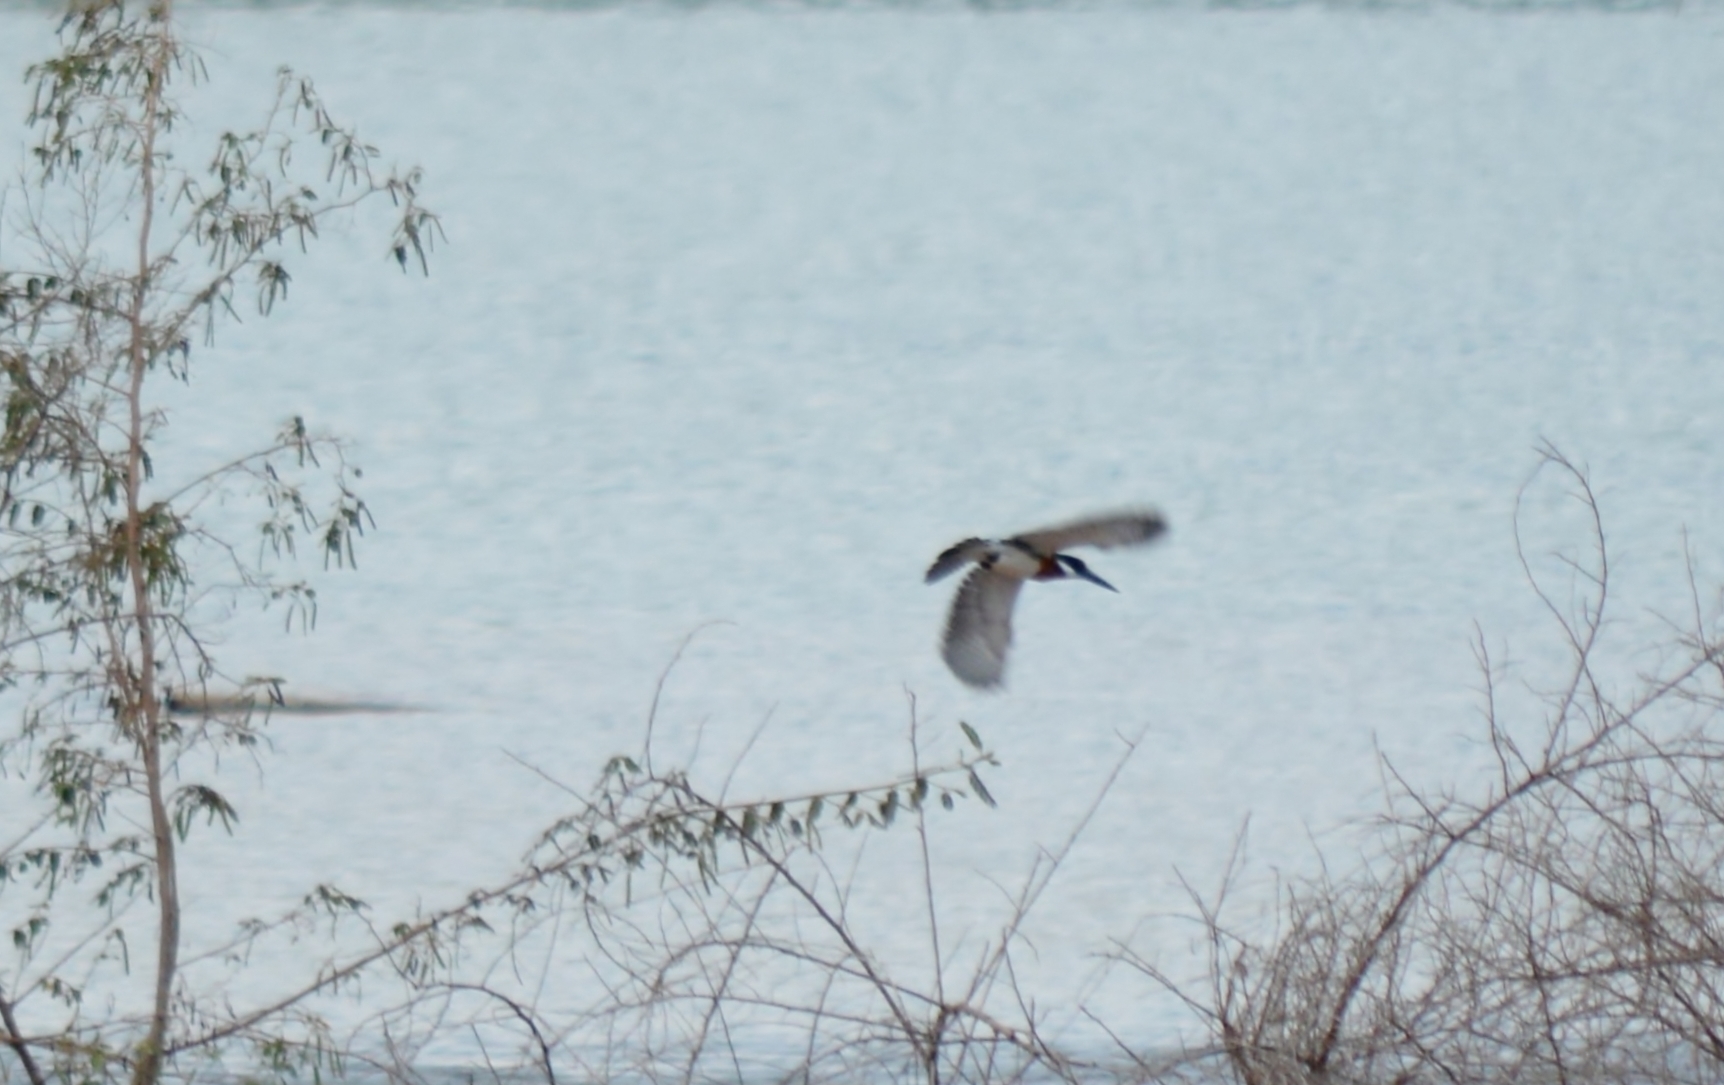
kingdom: Animalia
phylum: Chordata
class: Aves
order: Coraciiformes
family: Alcedinidae
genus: Chloroceryle
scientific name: Chloroceryle amazona
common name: Amazon kingfisher
